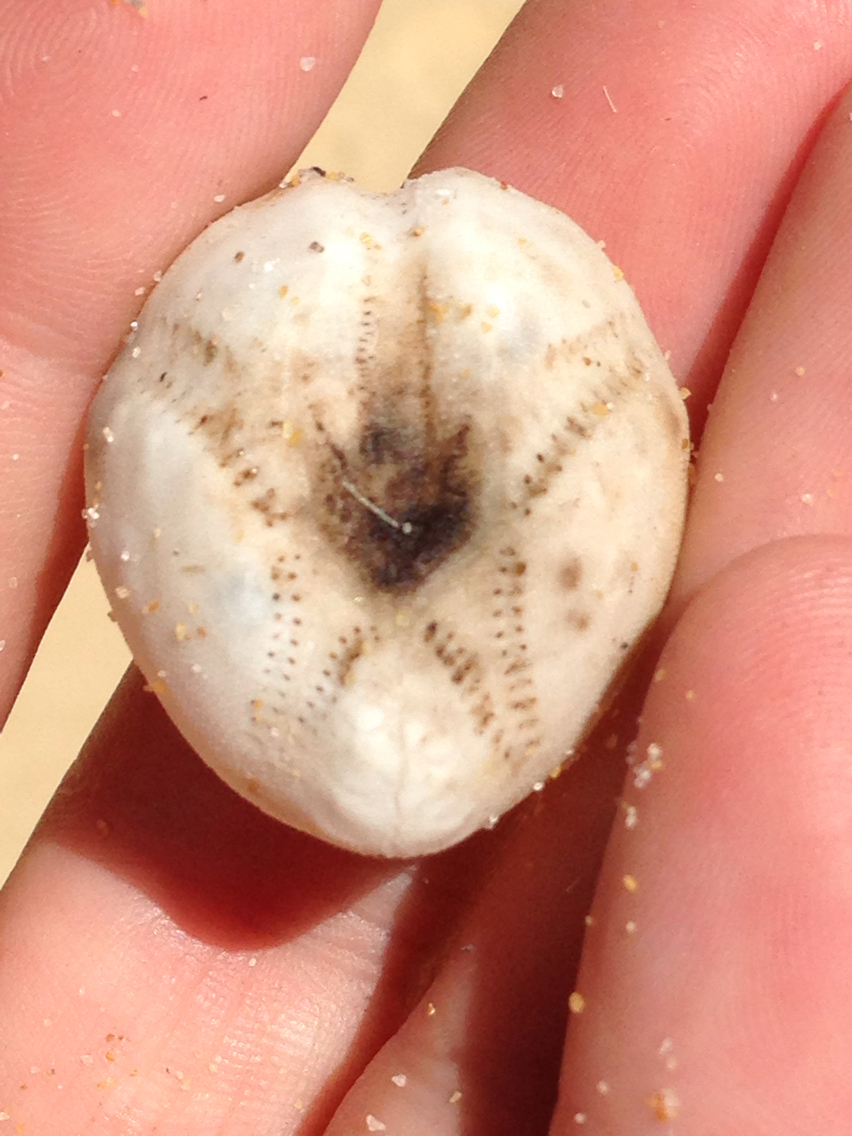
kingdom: Animalia
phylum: Echinodermata
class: Echinoidea
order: Spatangoida
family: Loveniidae
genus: Echinocardium
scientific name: Echinocardium cordatum
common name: Heart-urchin
